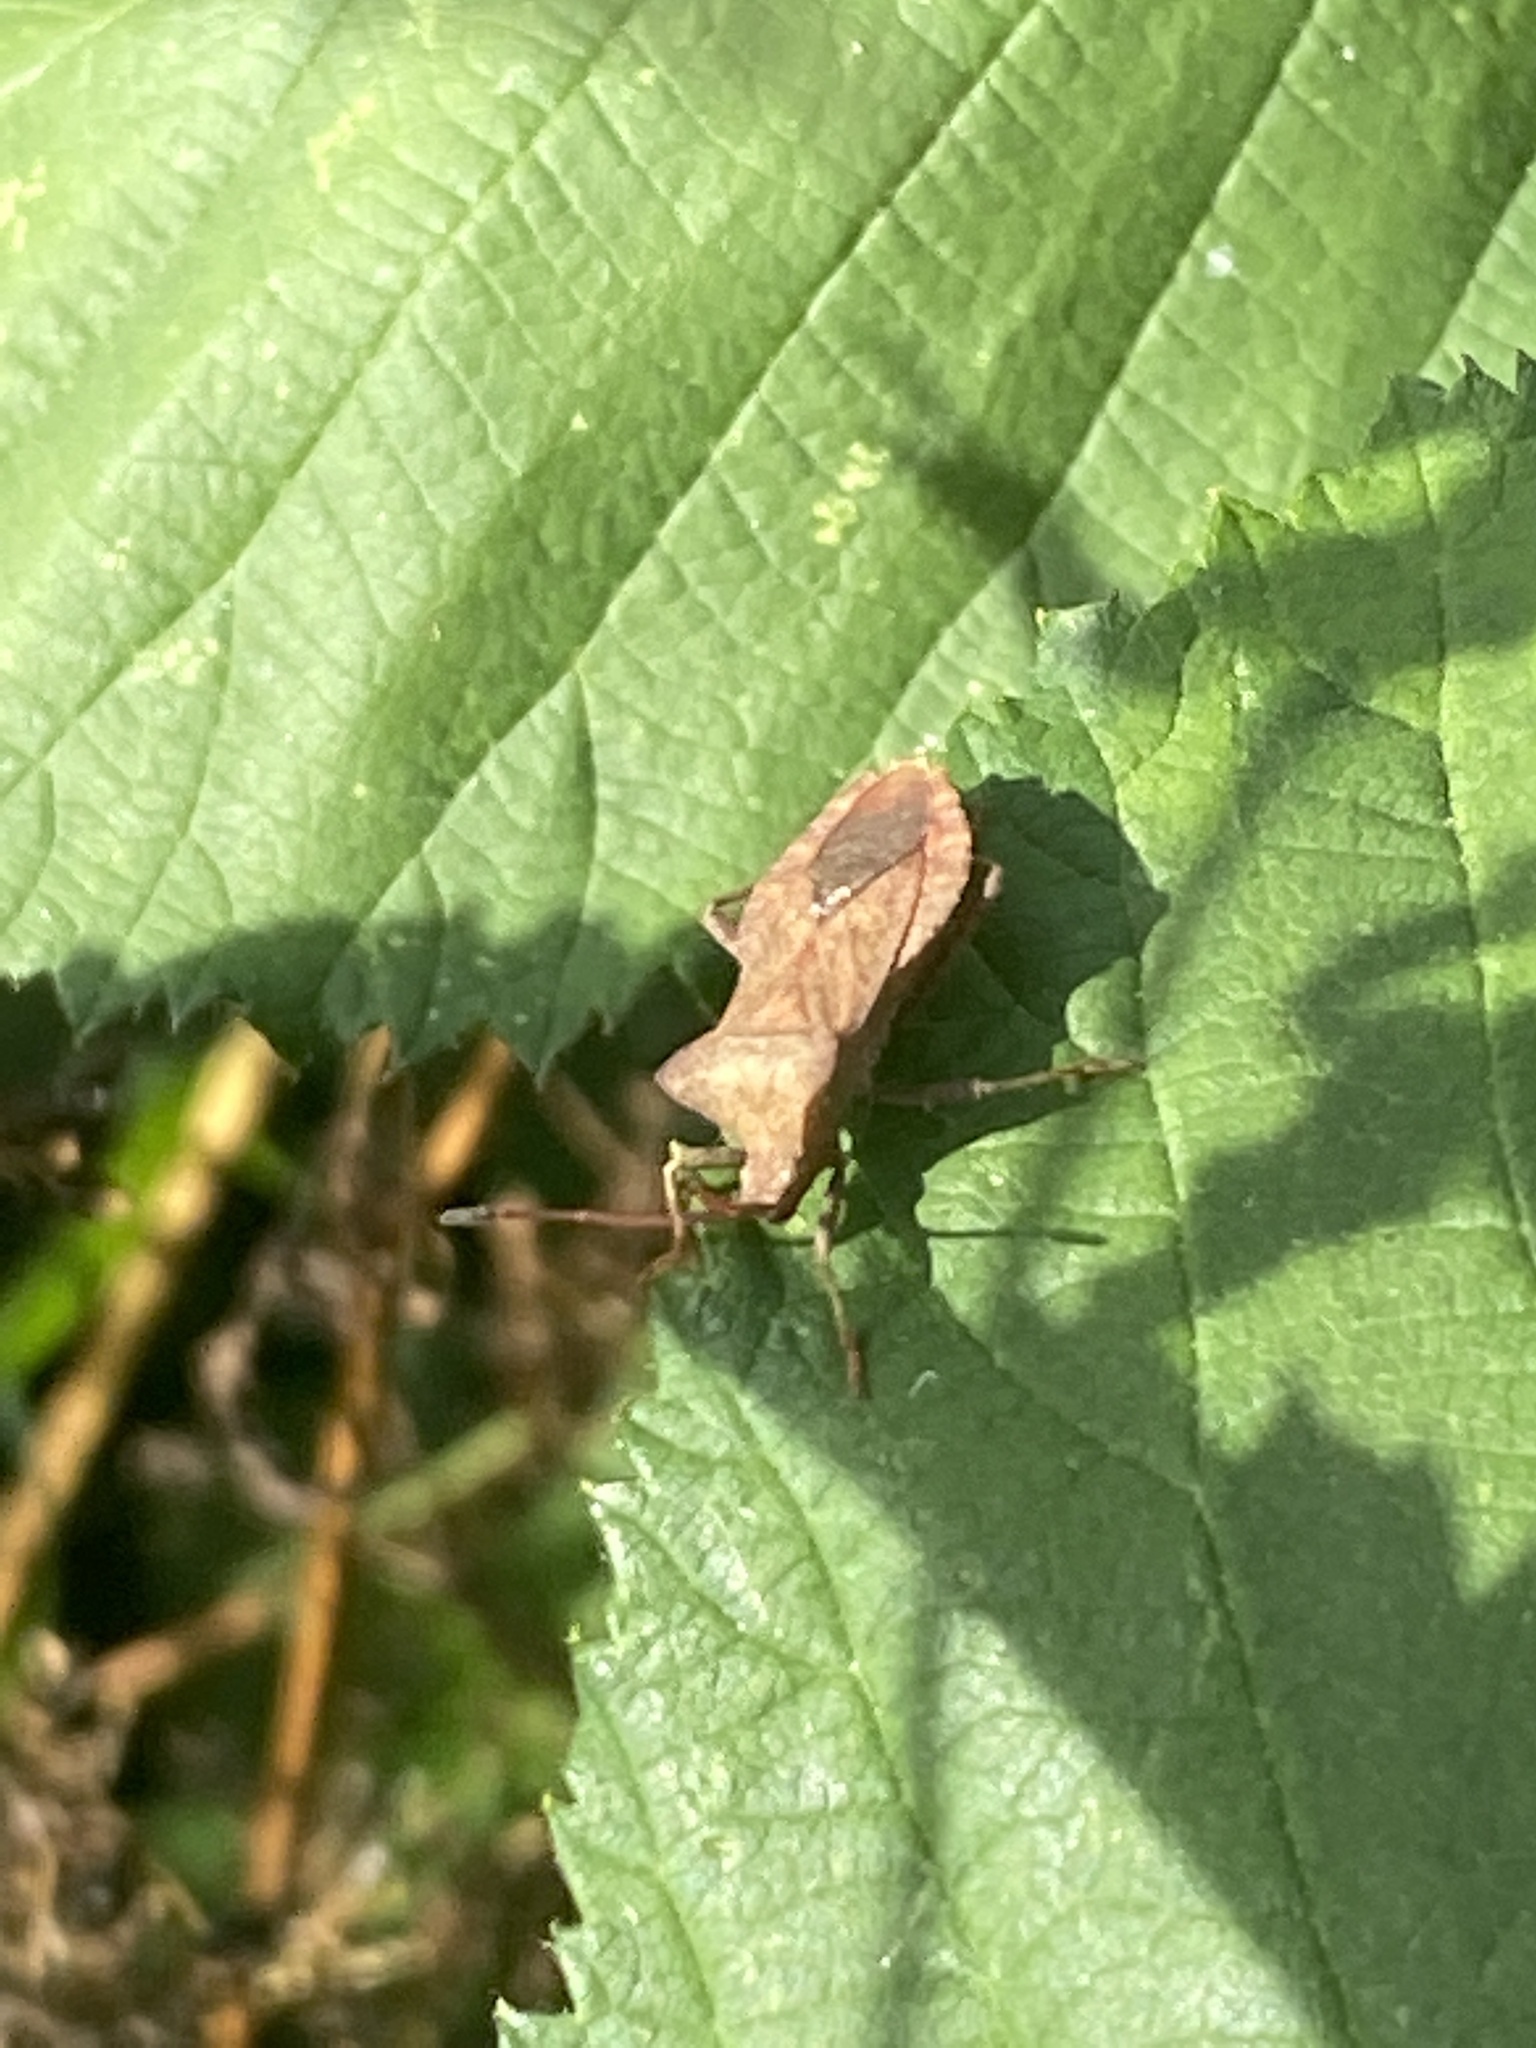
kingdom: Animalia
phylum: Arthropoda
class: Insecta
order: Hemiptera
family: Coreidae
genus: Coreus
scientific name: Coreus marginatus
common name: Dock bug
